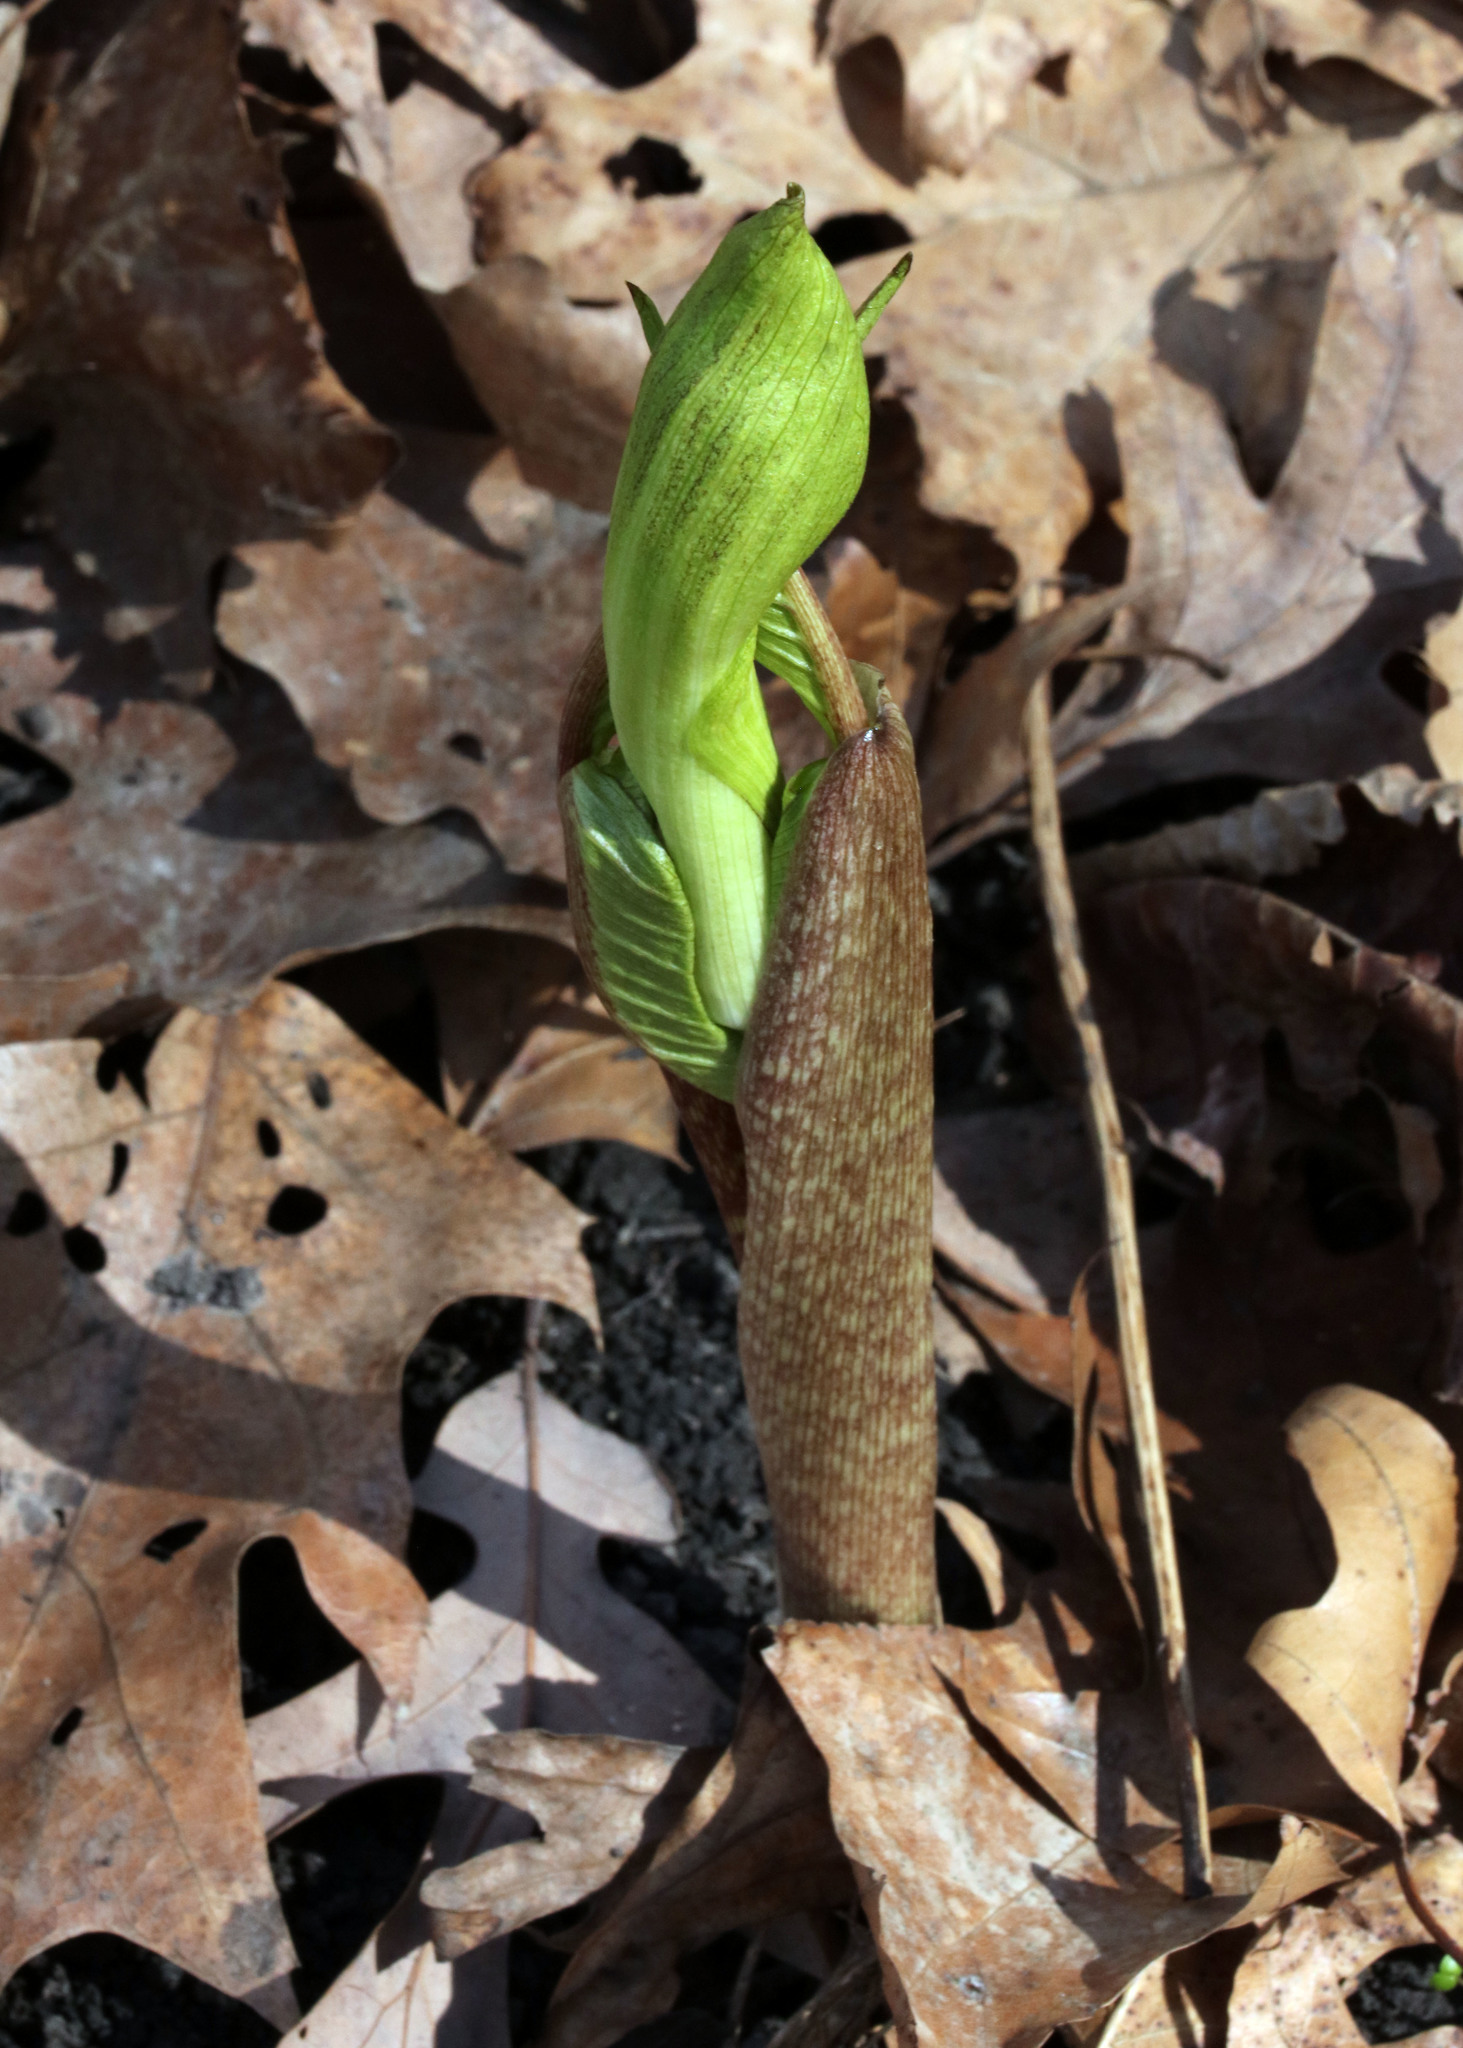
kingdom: Plantae
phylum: Tracheophyta
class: Liliopsida
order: Alismatales
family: Araceae
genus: Arisaema
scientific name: Arisaema triphyllum
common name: Jack-in-the-pulpit
